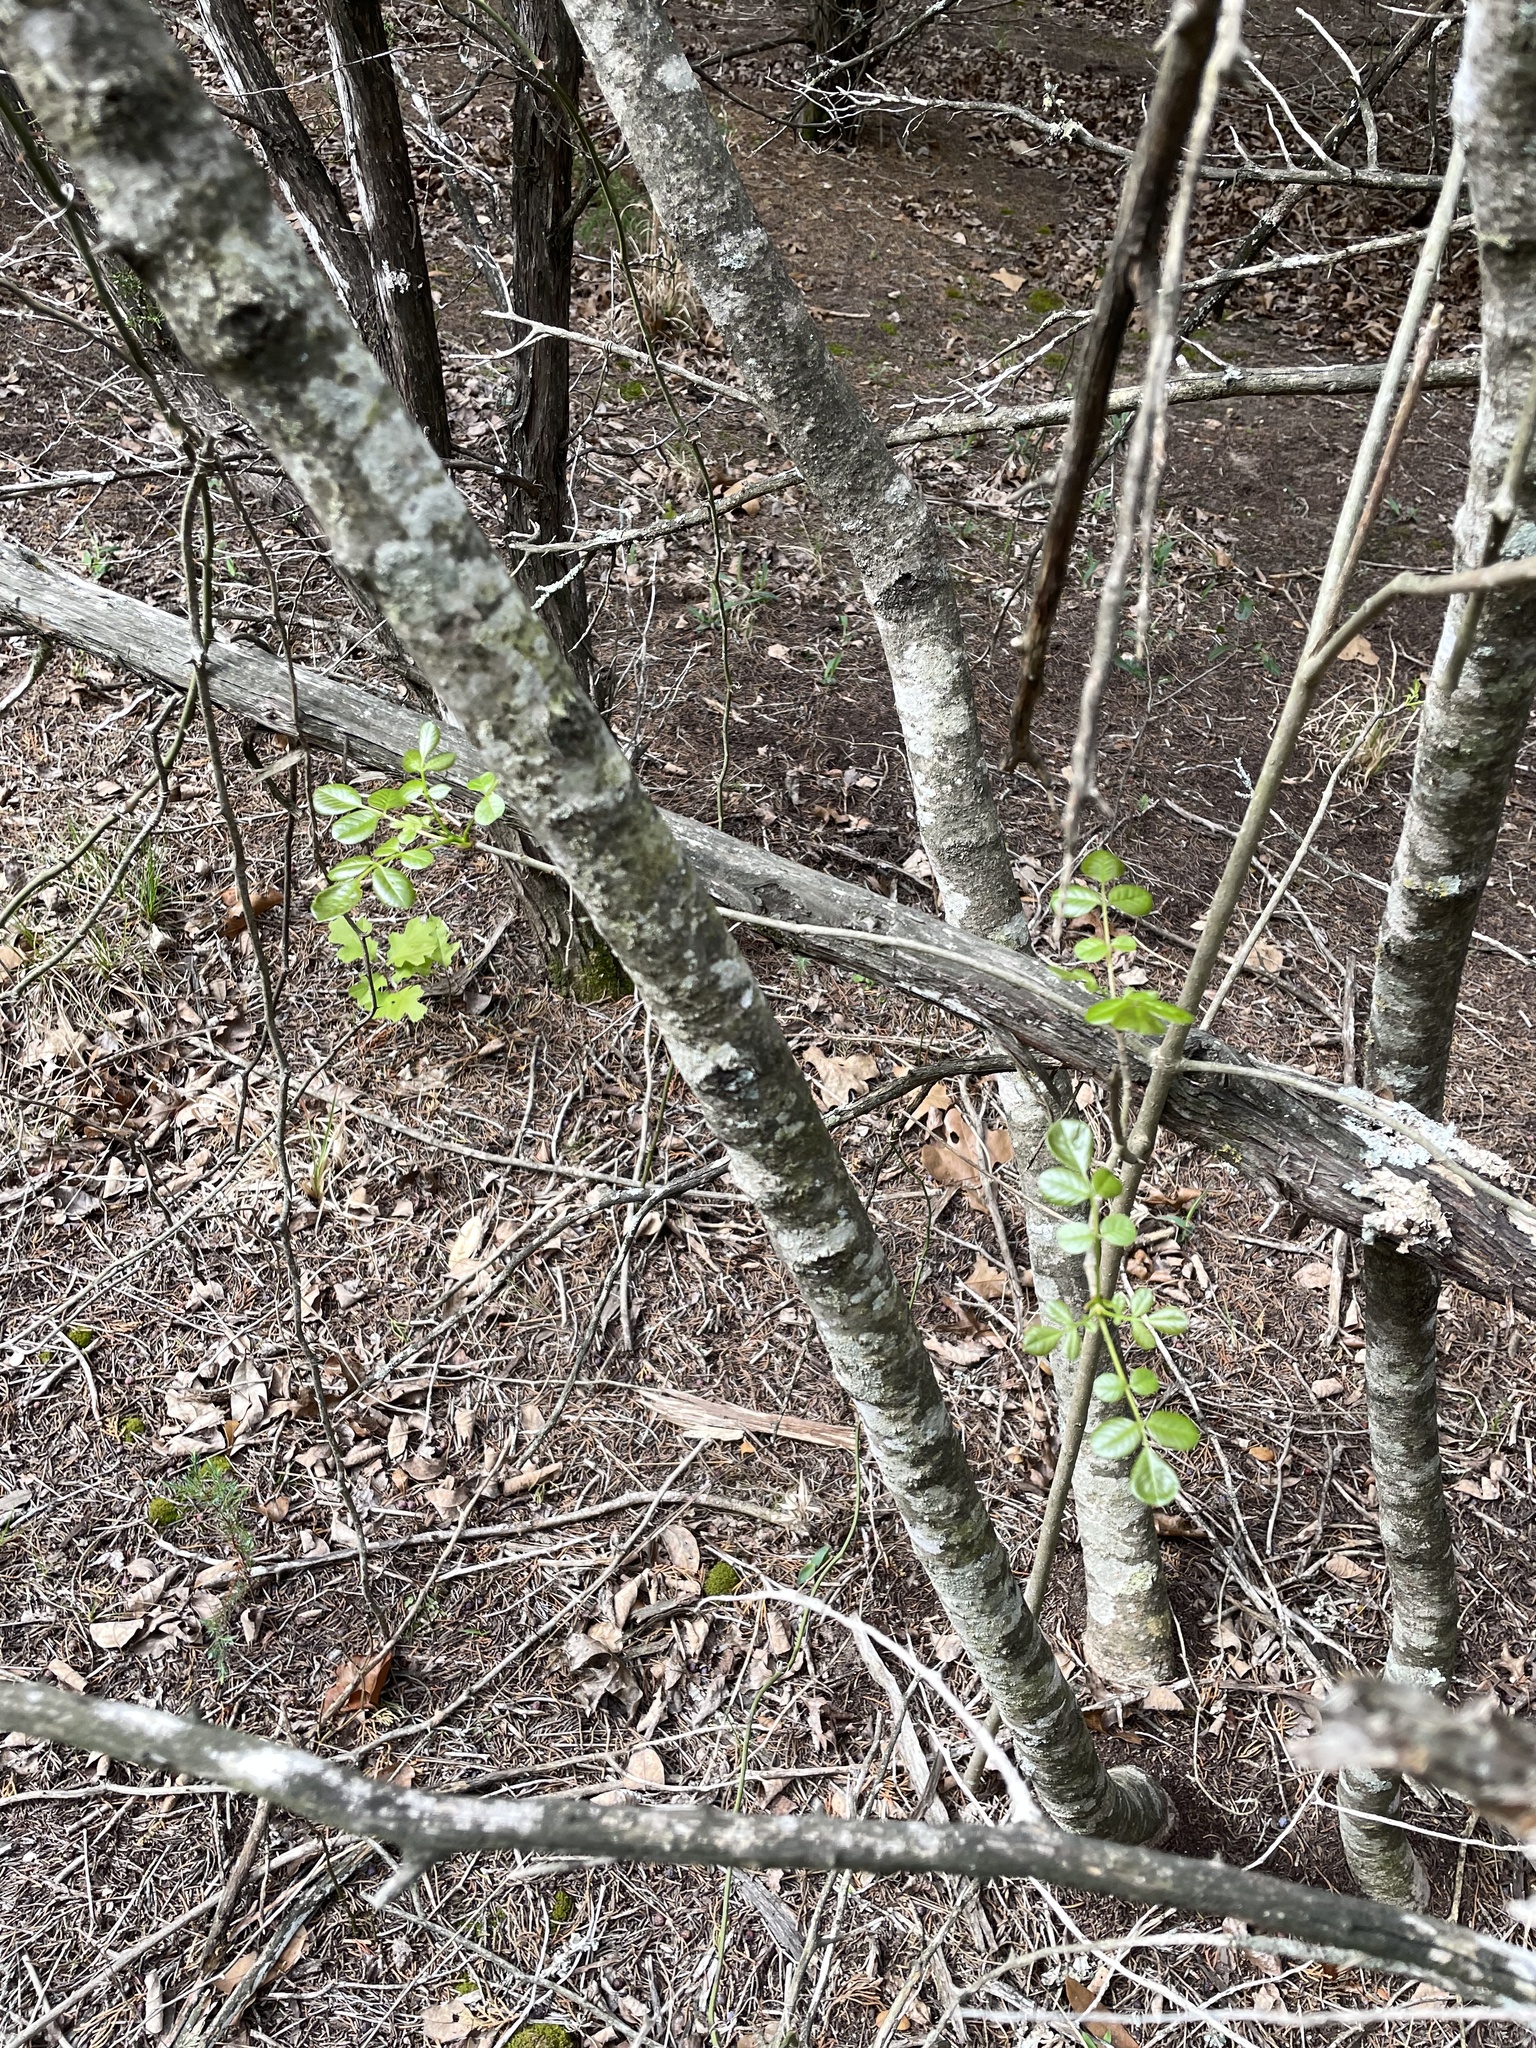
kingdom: Plantae
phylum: Tracheophyta
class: Magnoliopsida
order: Lamiales
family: Oleaceae
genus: Fraxinus
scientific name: Fraxinus albicans
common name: Texas ash
